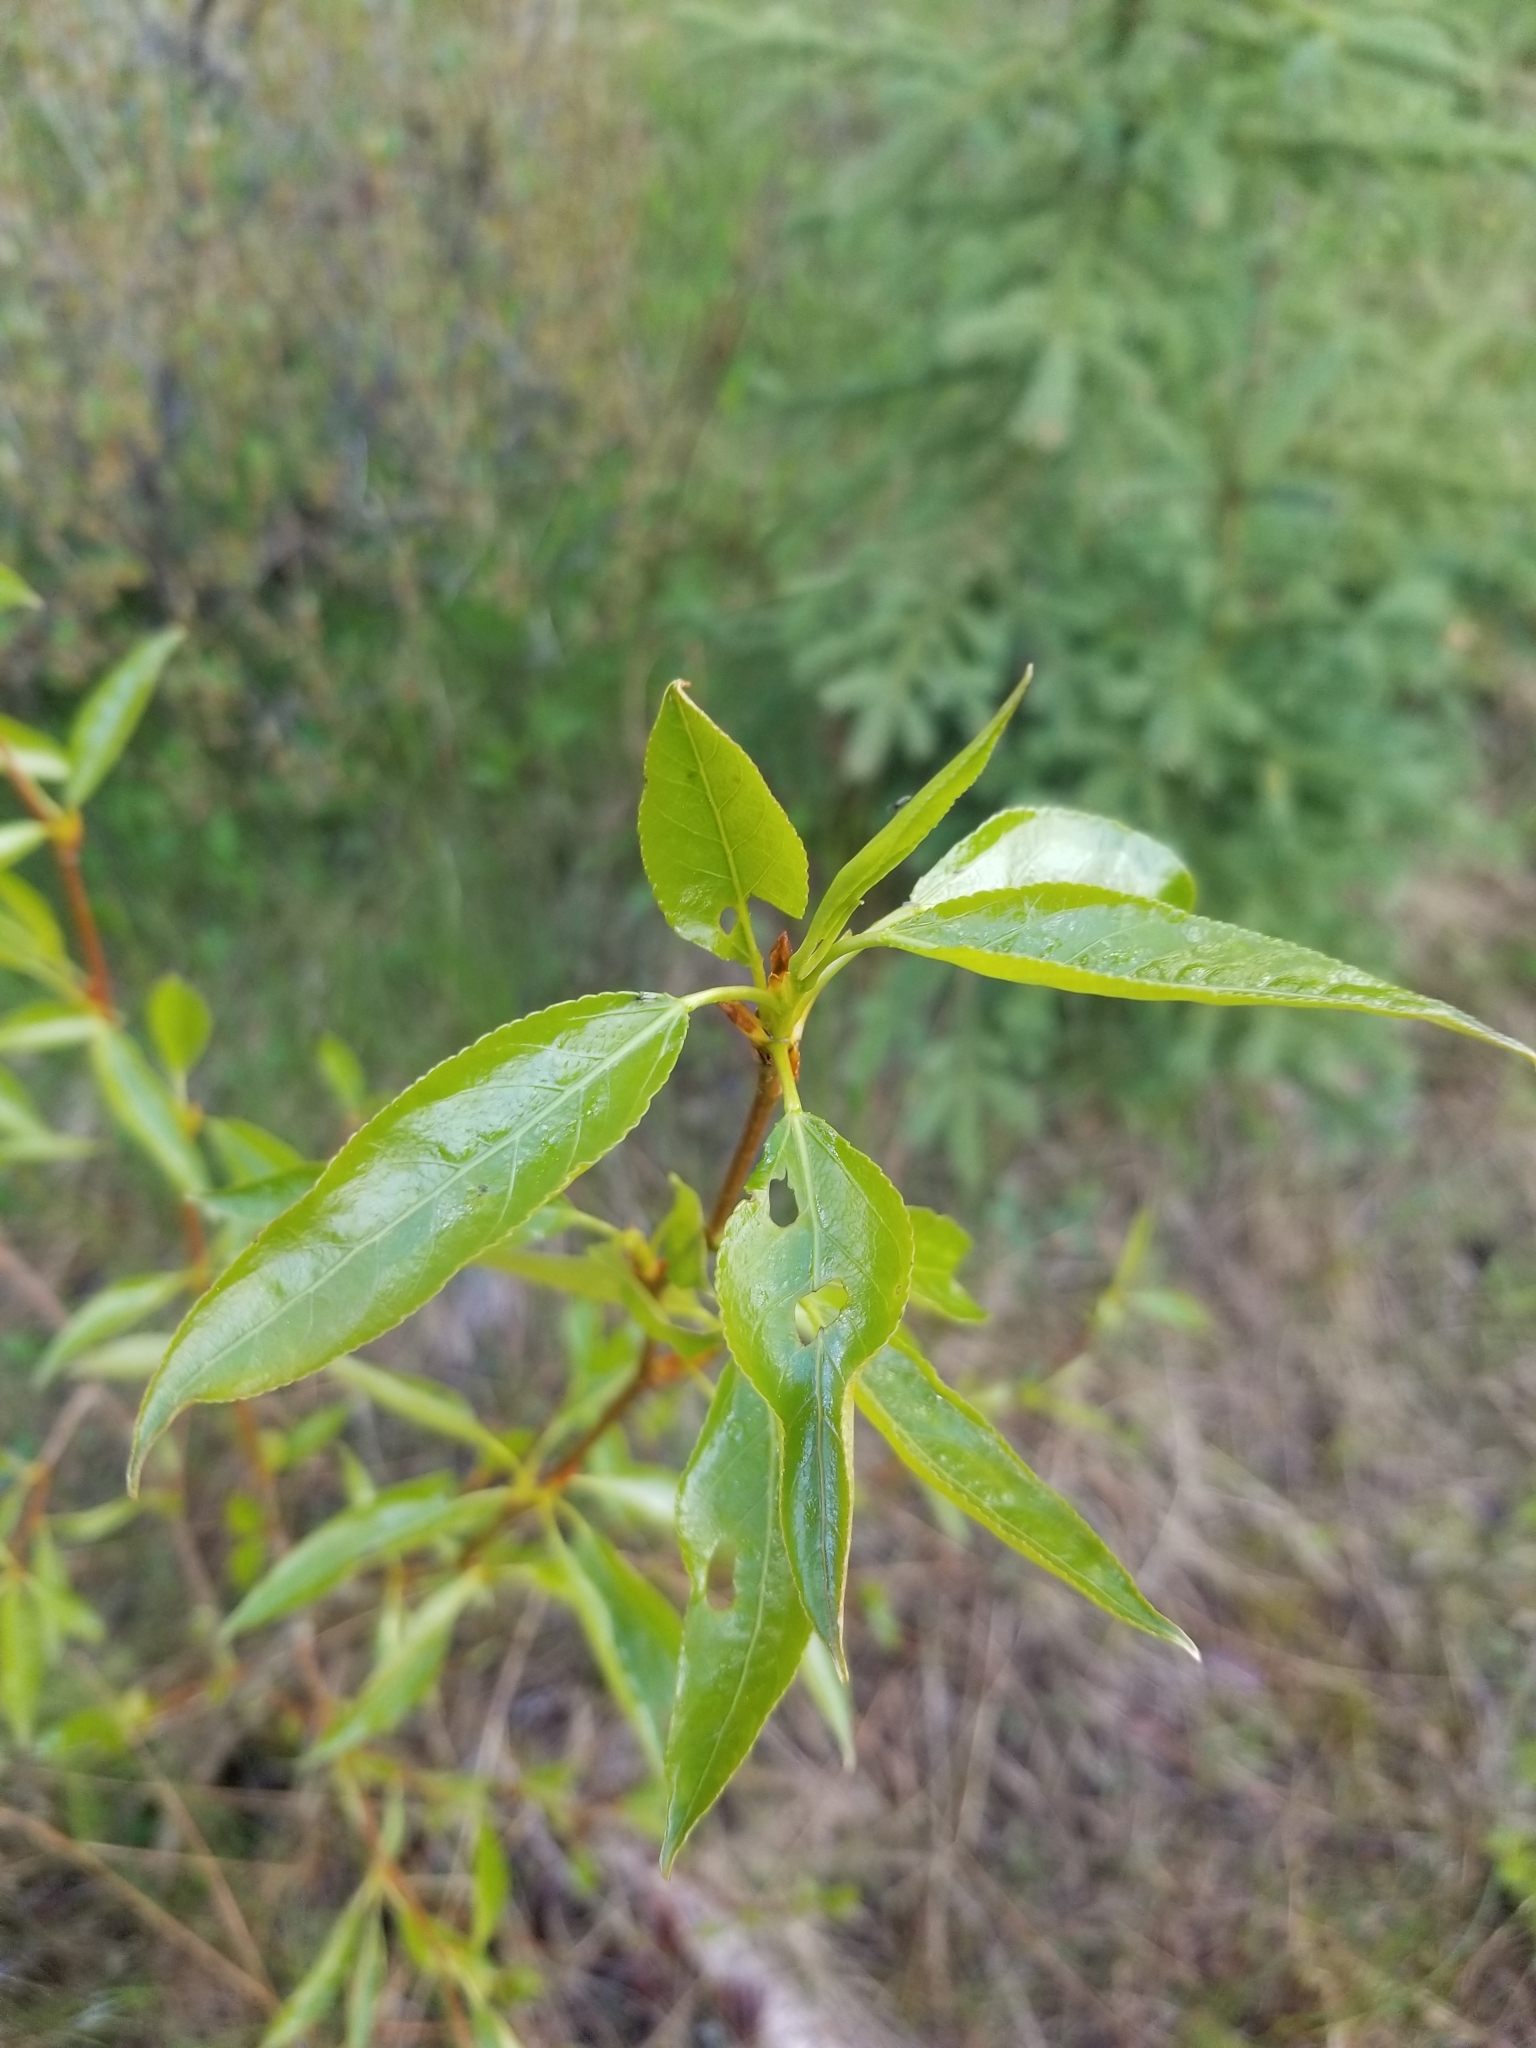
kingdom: Plantae
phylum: Tracheophyta
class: Magnoliopsida
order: Malpighiales
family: Salicaceae
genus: Populus
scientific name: Populus trichocarpa
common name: Black cottonwood
